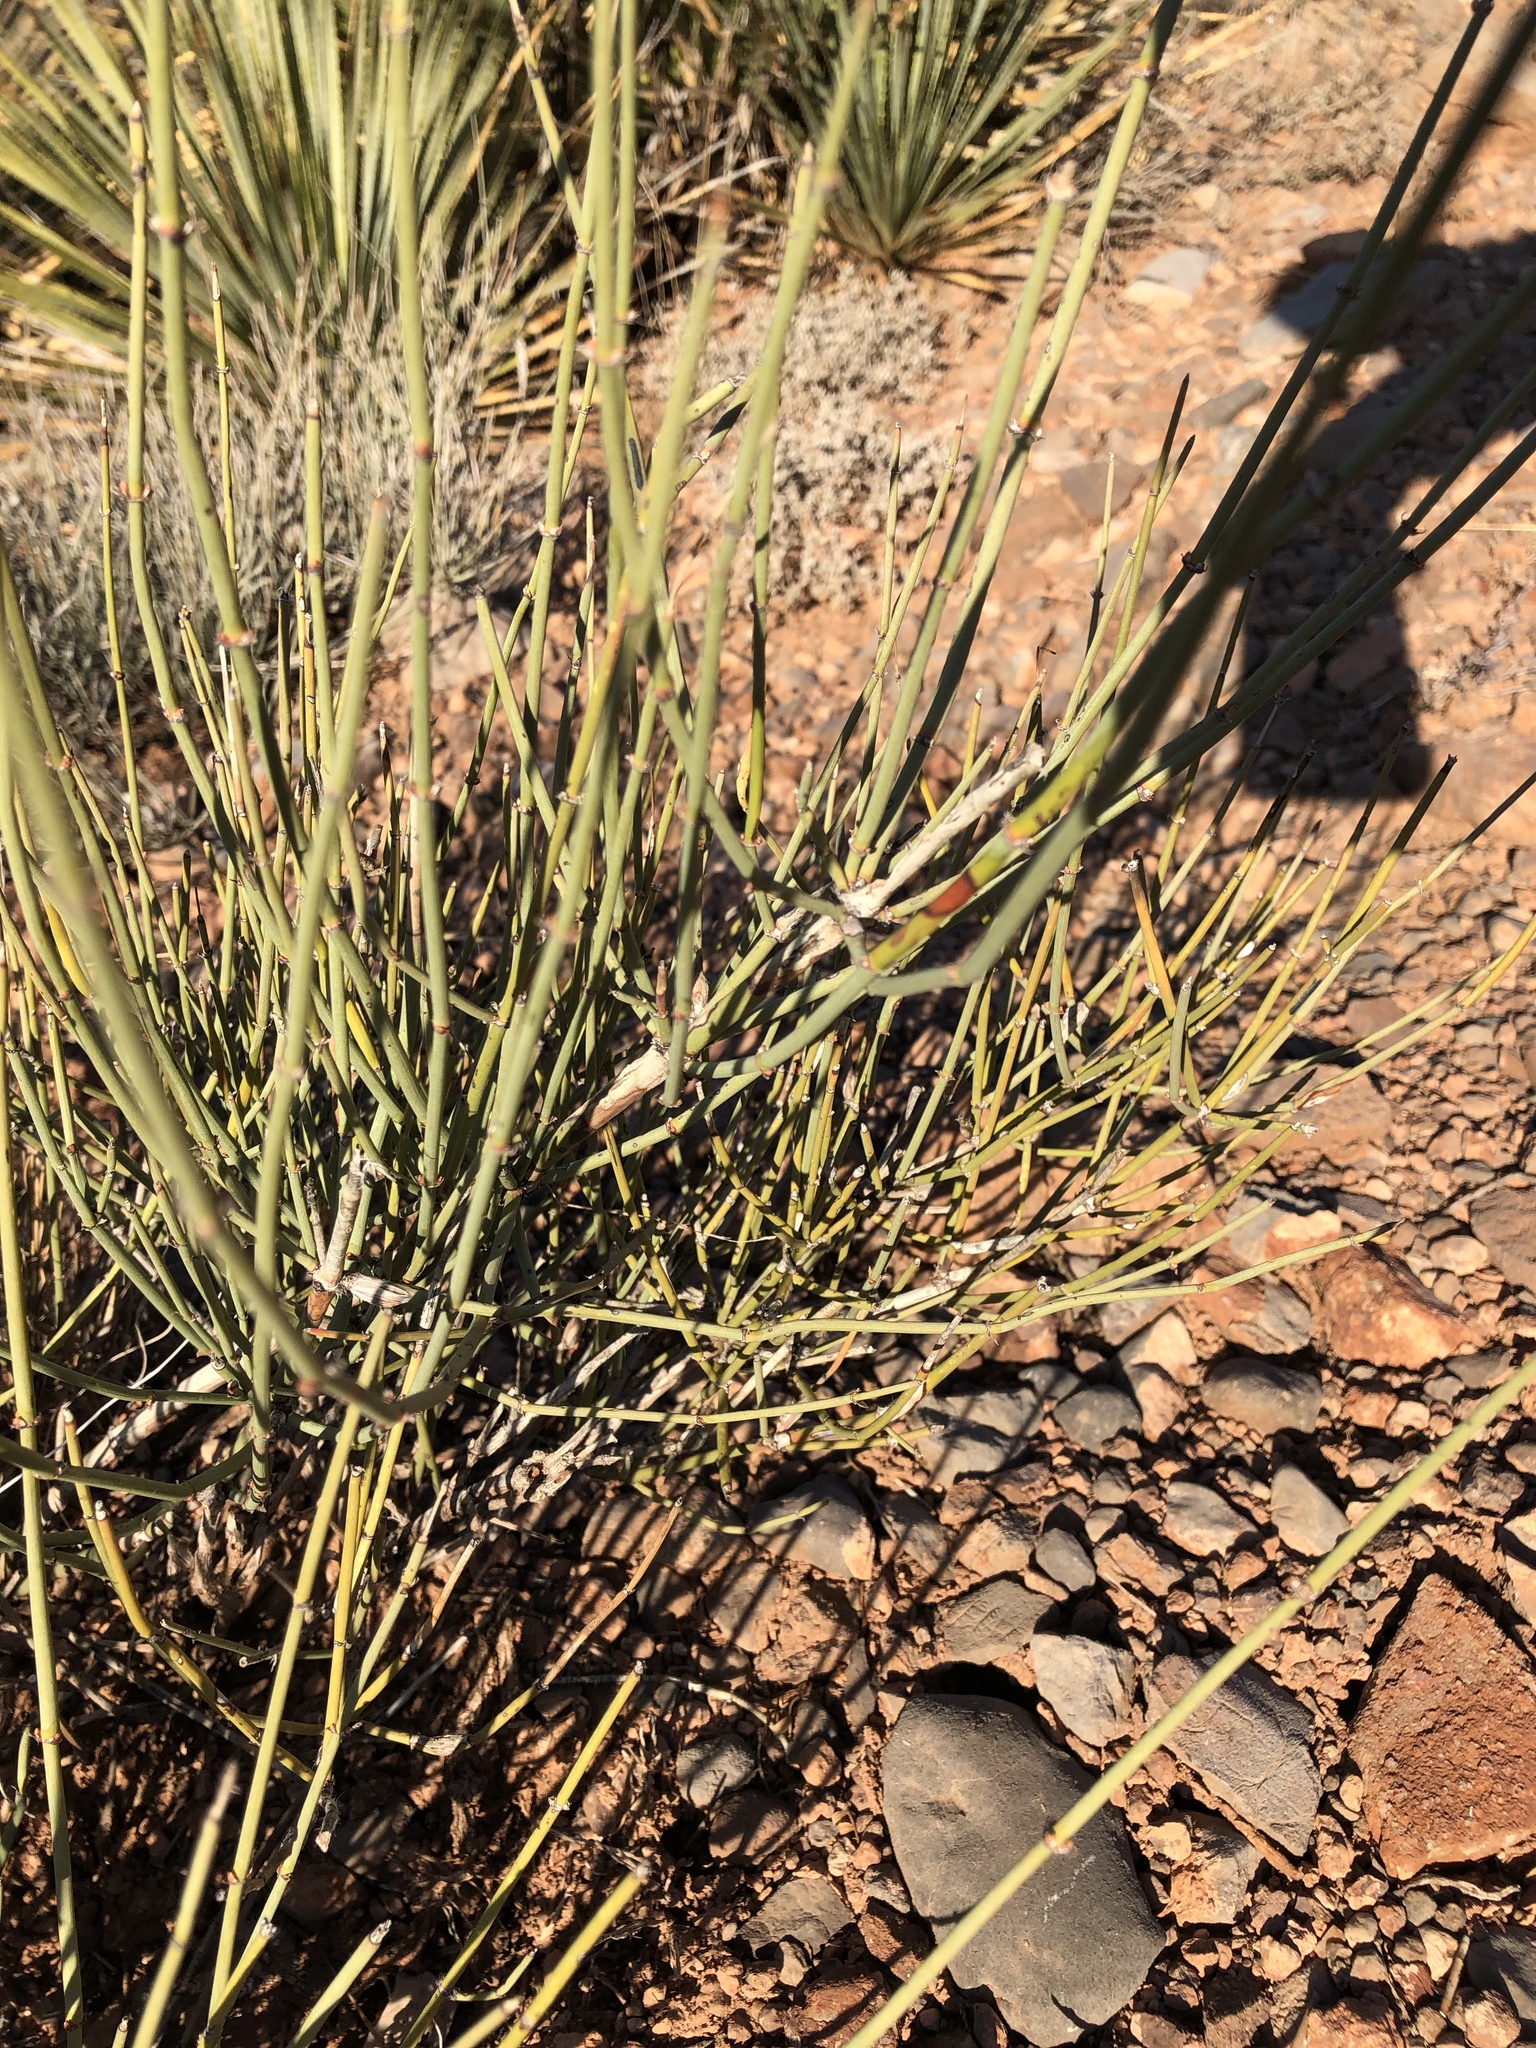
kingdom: Plantae
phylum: Tracheophyta
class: Gnetopsida
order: Ephedrales
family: Ephedraceae
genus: Ephedra
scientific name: Ephedra trifurca
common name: Mexican-tea
